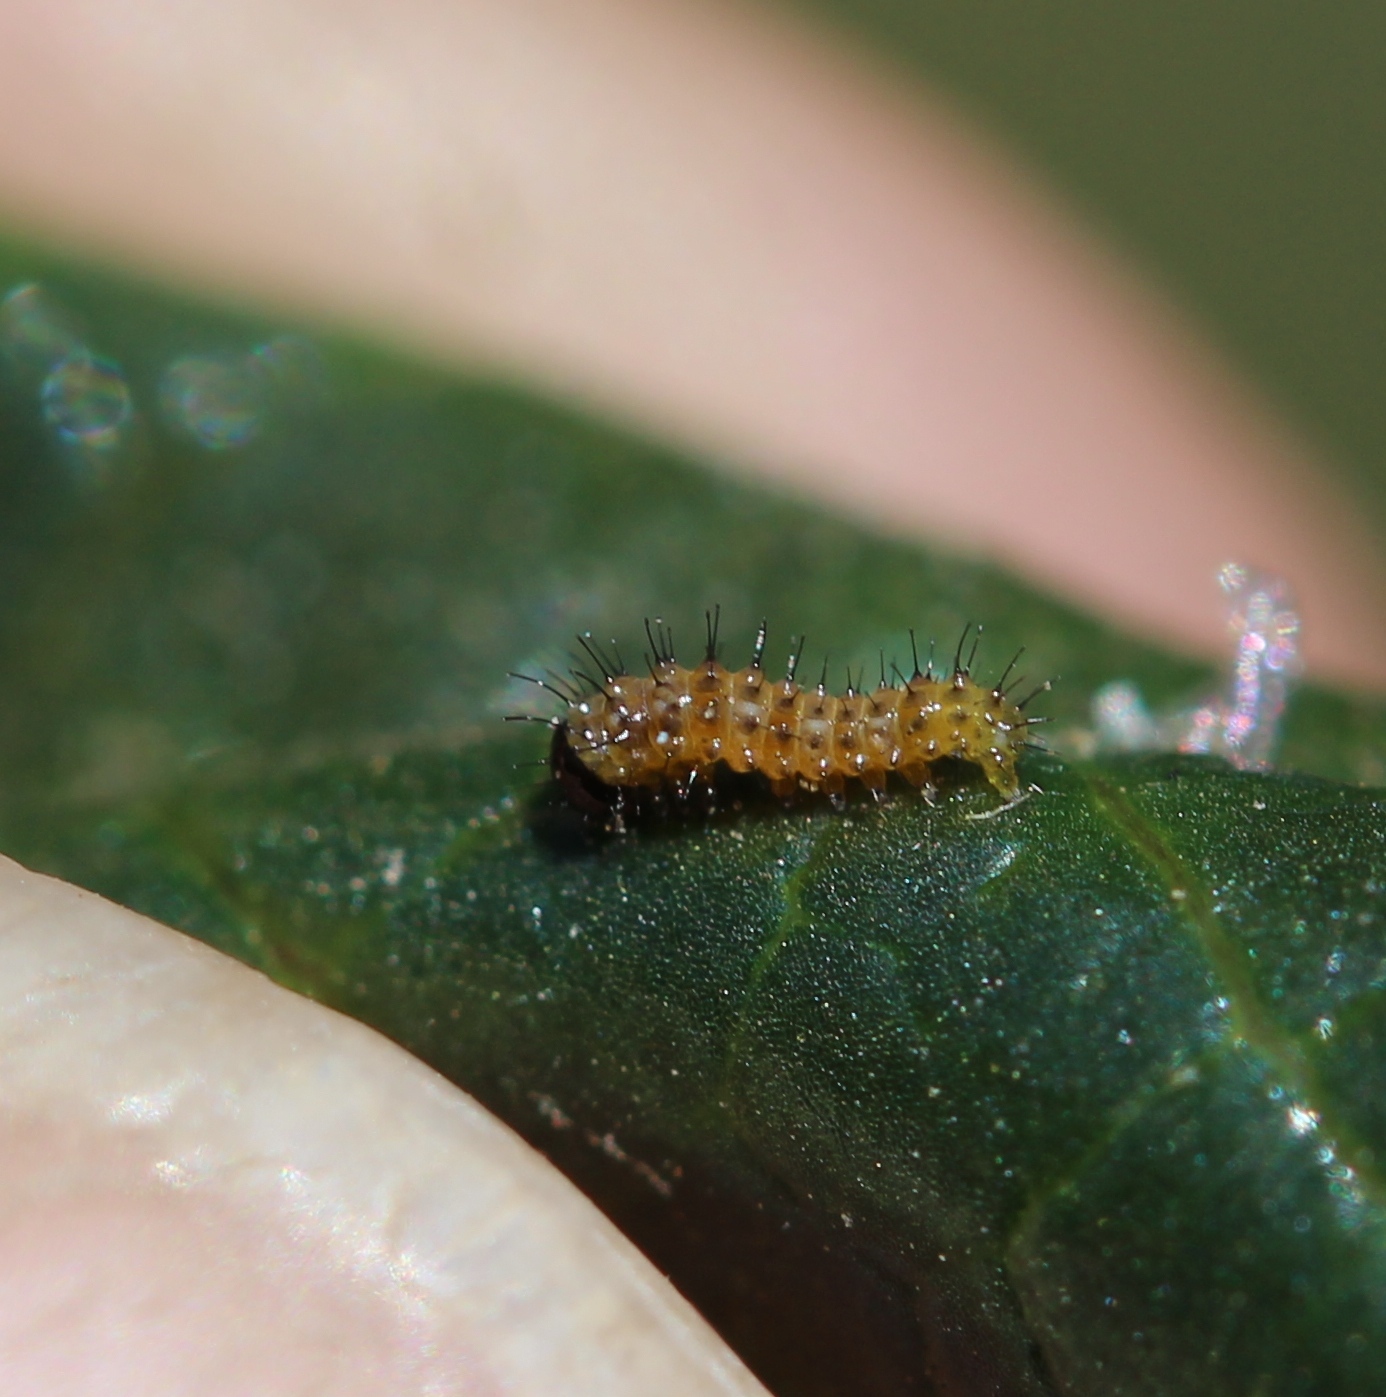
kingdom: Animalia
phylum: Arthropoda
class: Insecta
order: Lepidoptera
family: Nymphalidae
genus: Dione
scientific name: Dione vanillae
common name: Gulf fritillary
